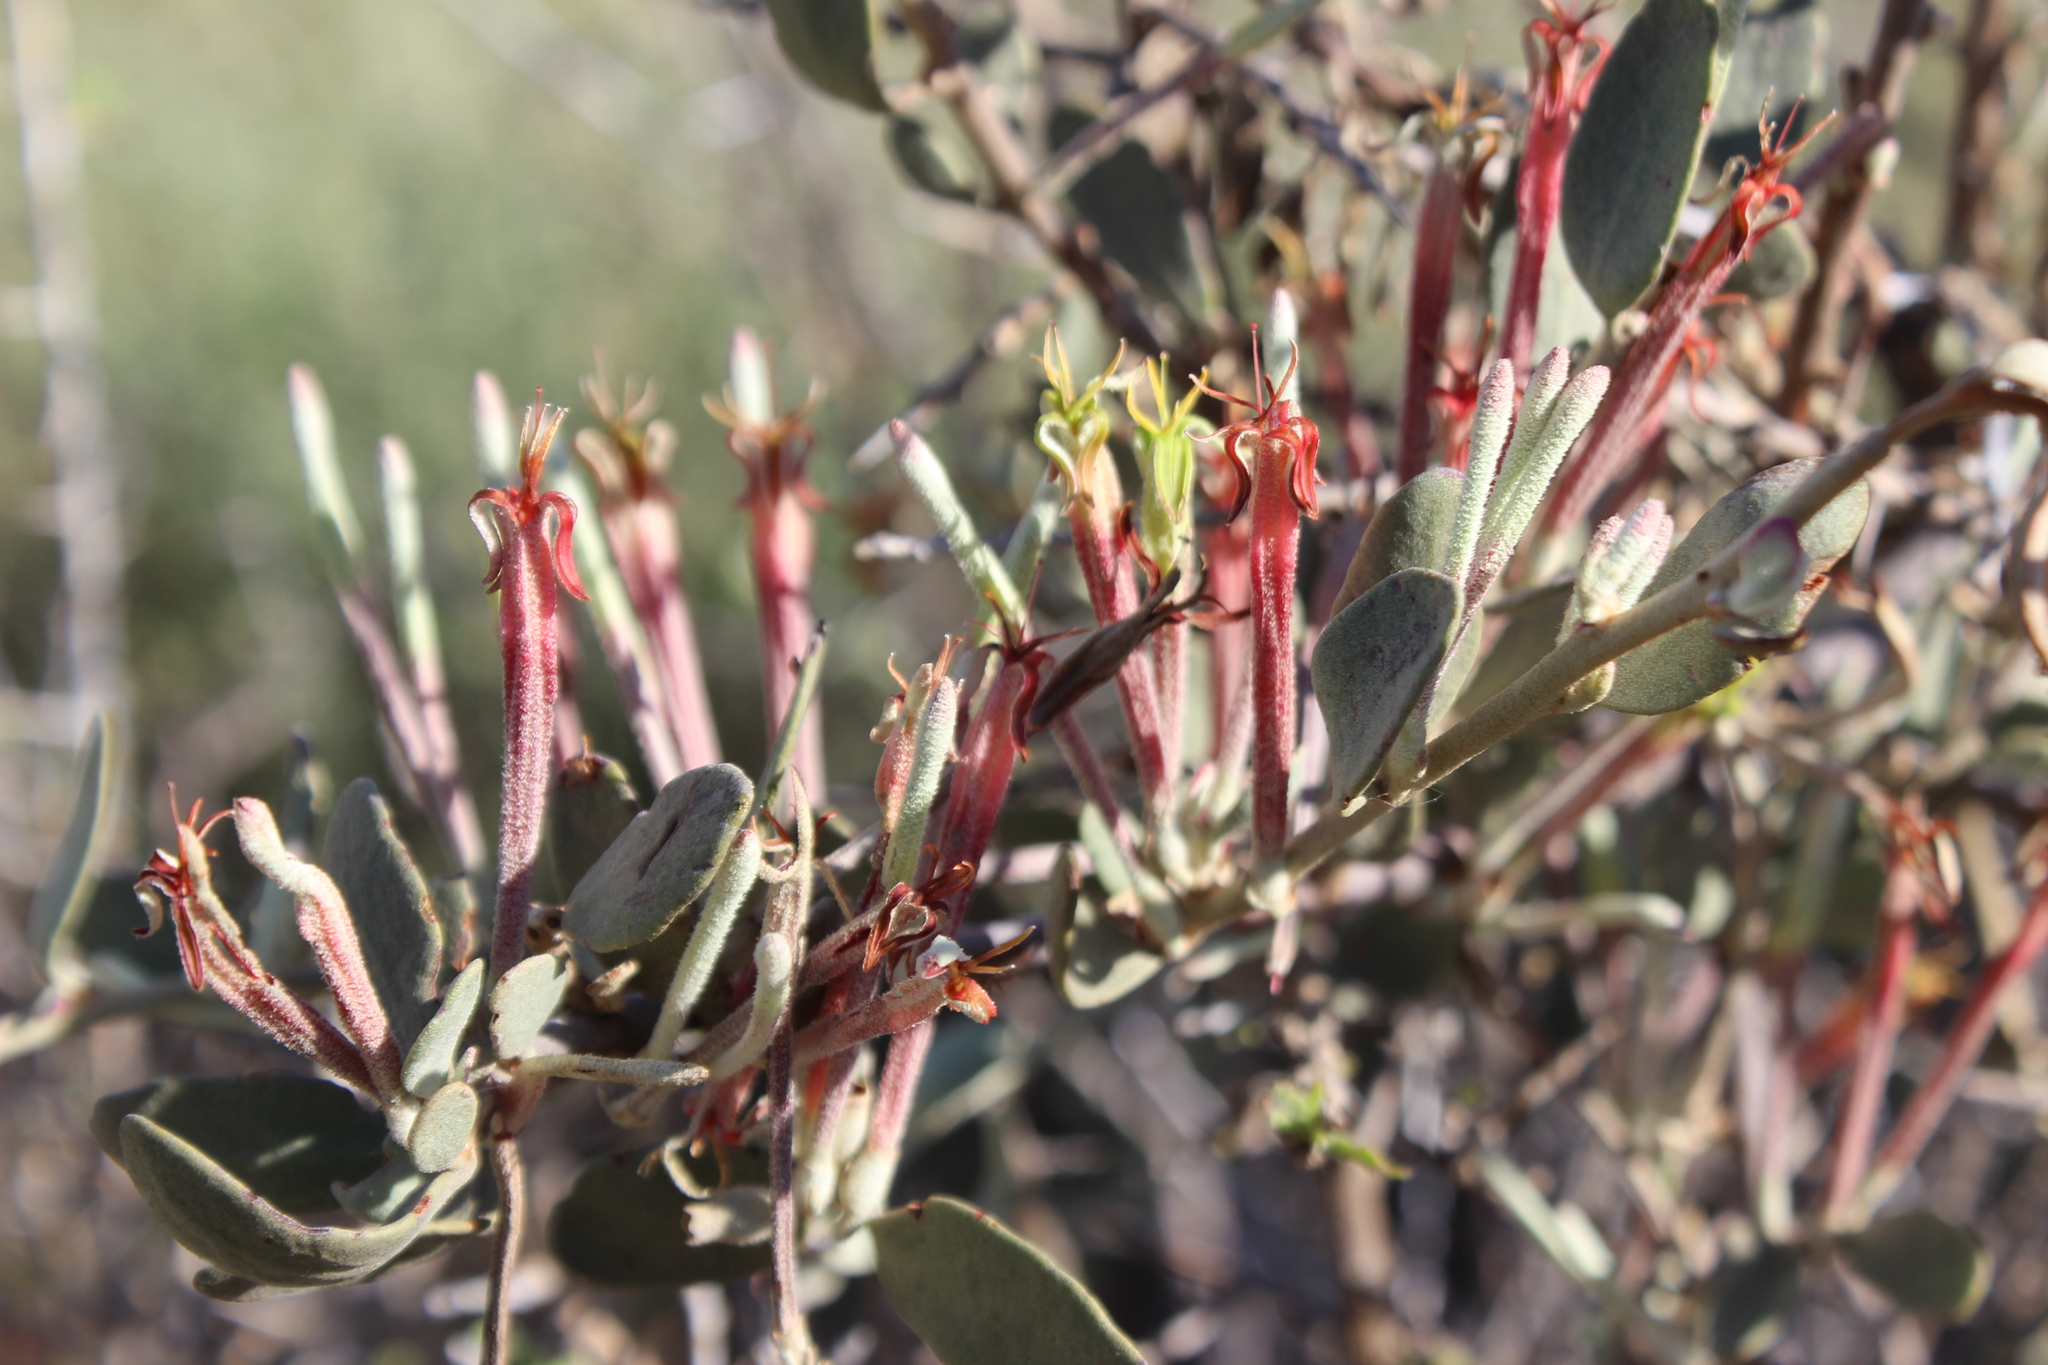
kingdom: Plantae
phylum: Tracheophyta
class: Magnoliopsida
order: Santalales
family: Loranthaceae
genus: Tapinanthus
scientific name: Tapinanthus oleifolius
